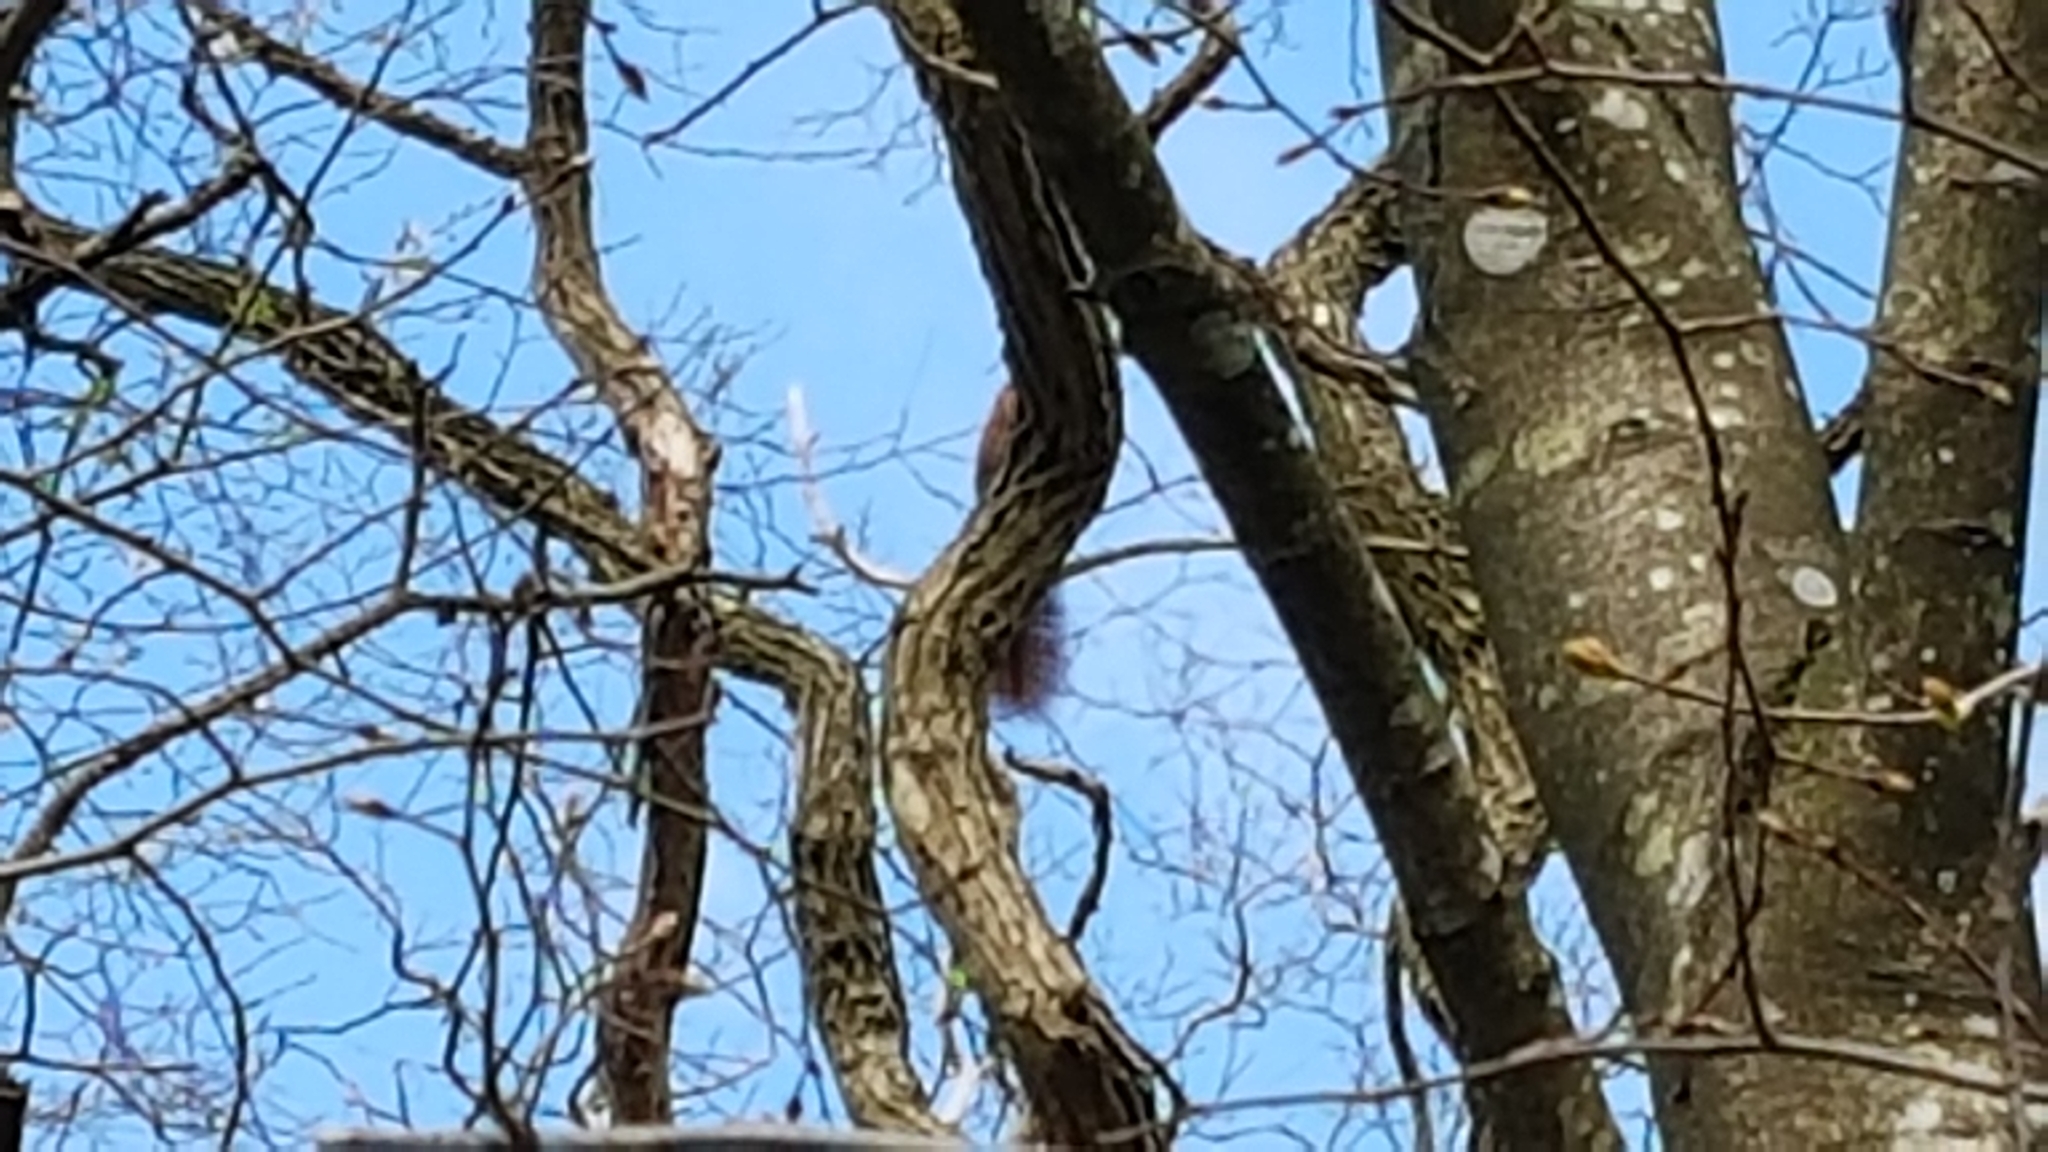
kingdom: Animalia
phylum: Chordata
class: Mammalia
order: Rodentia
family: Sciuridae
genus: Sciurus
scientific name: Sciurus vulgaris
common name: Eurasian red squirrel
